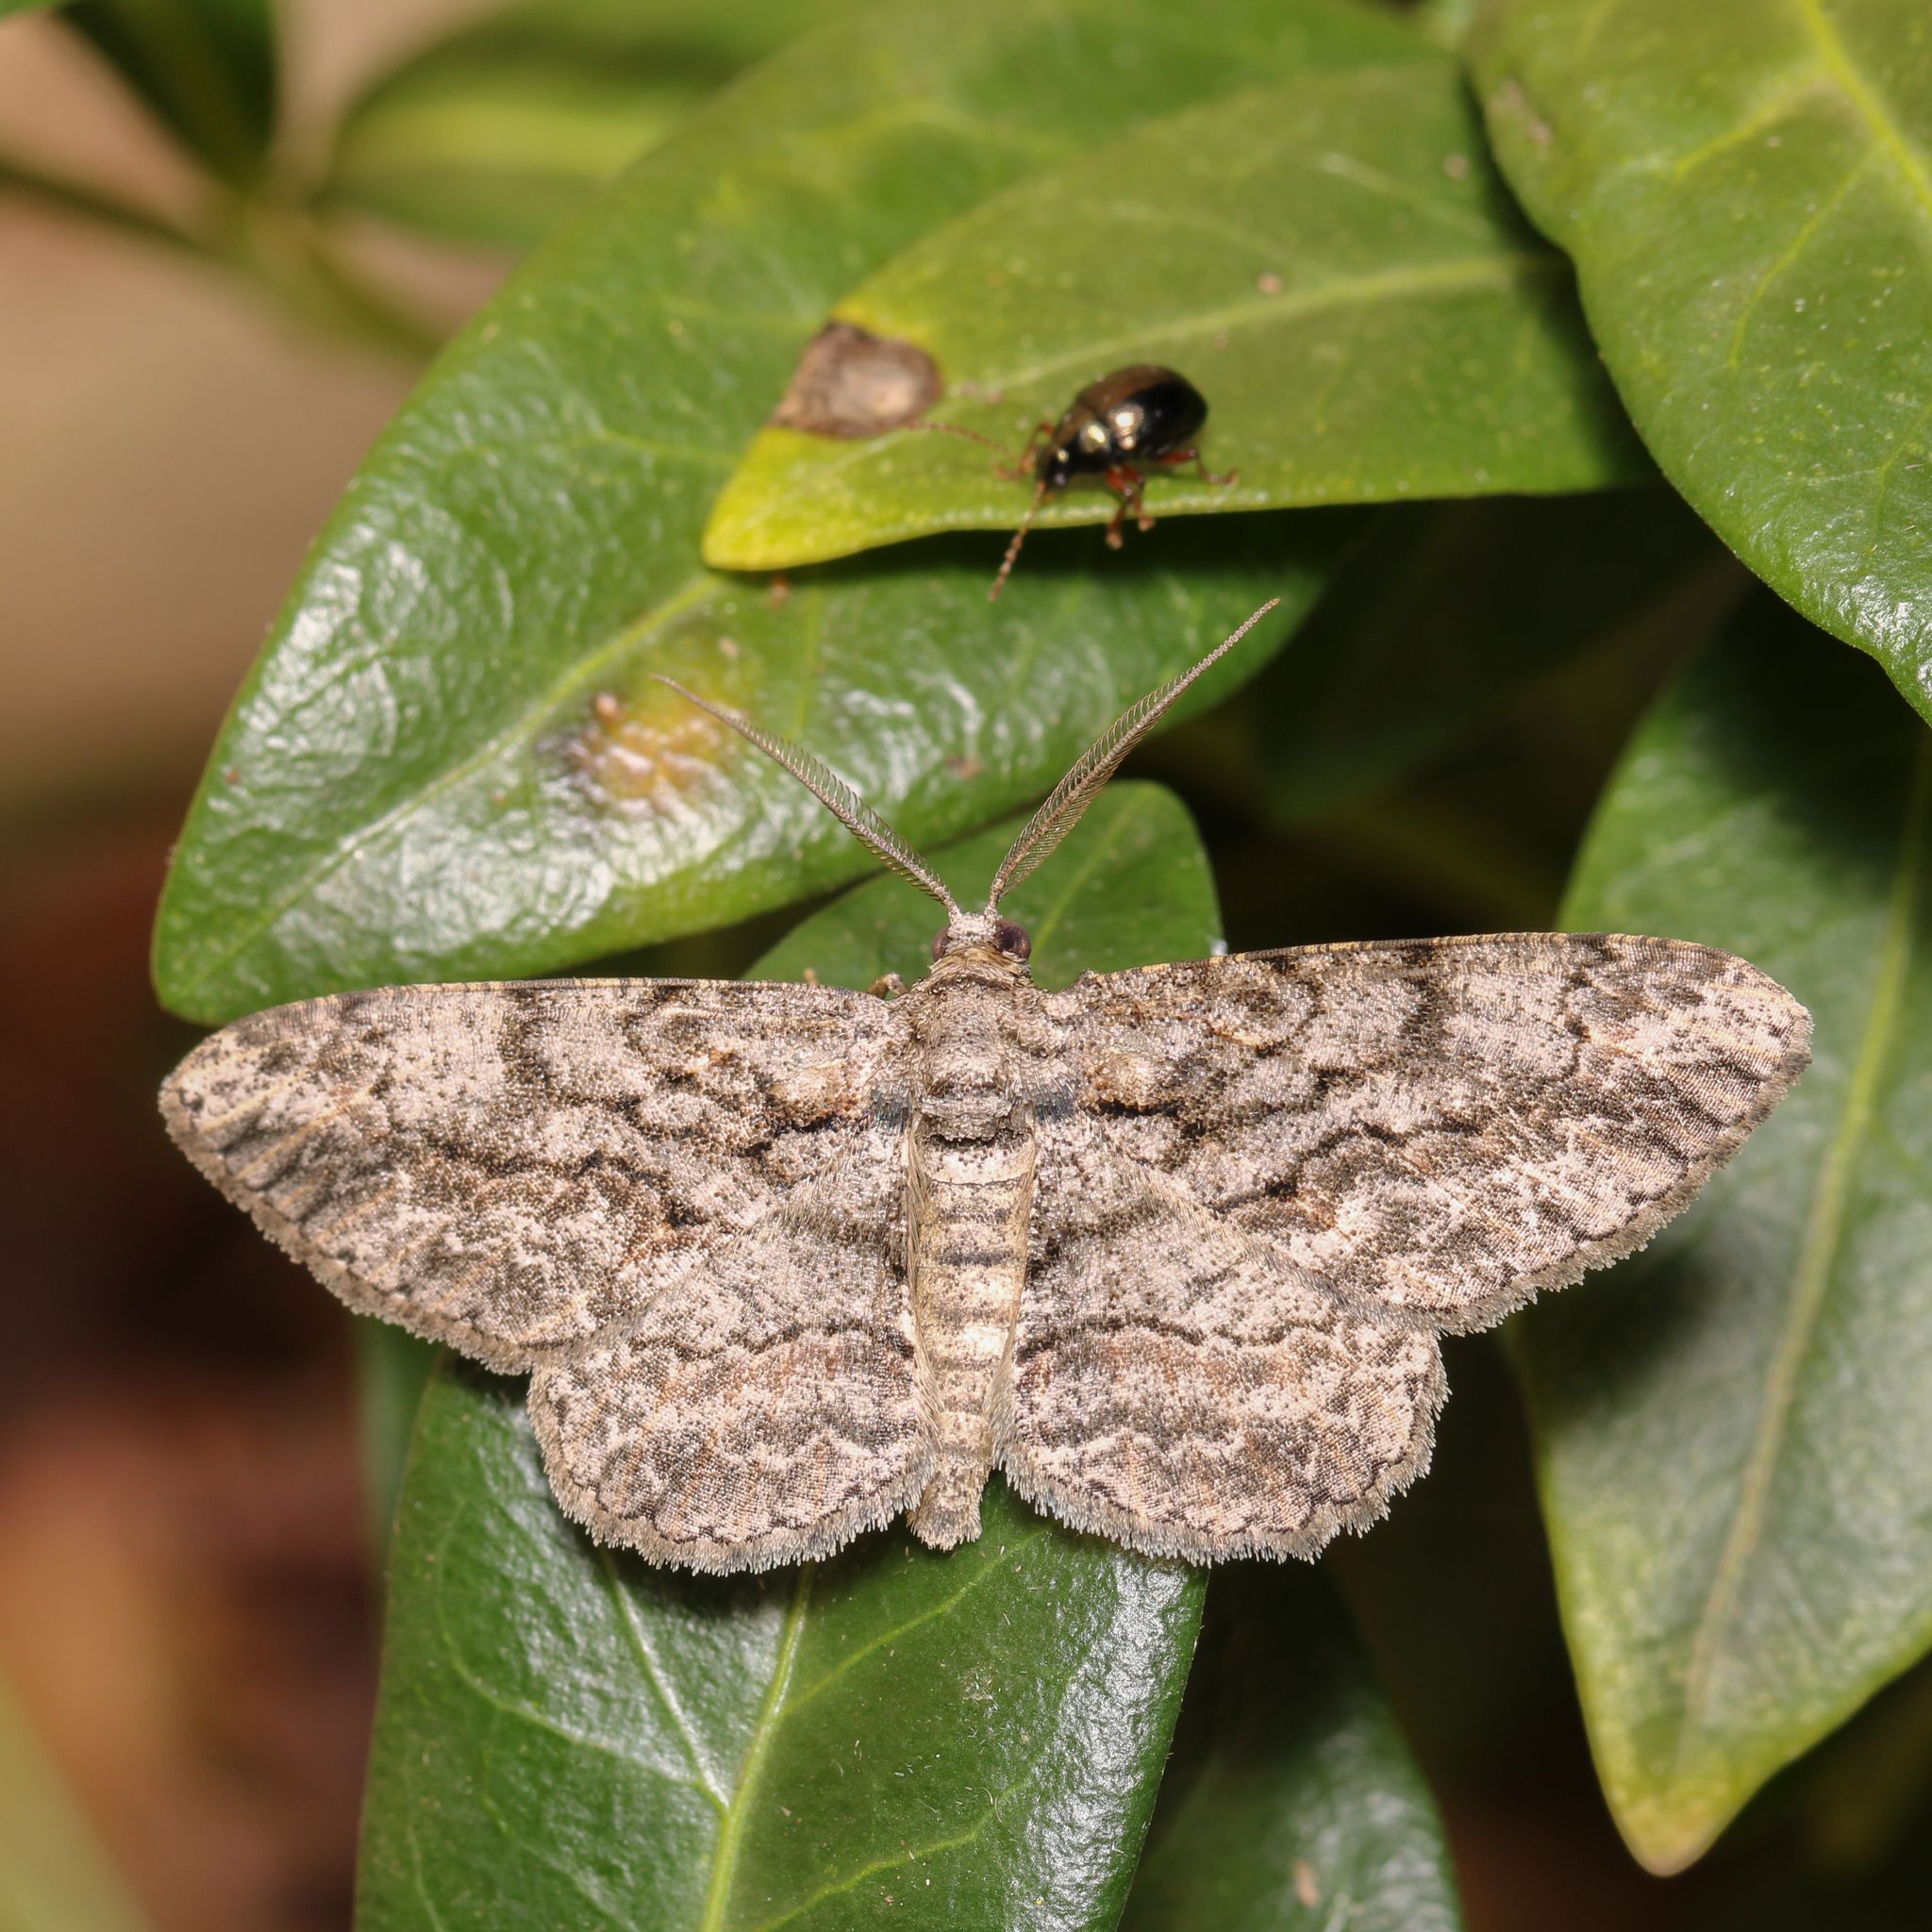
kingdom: Animalia
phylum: Arthropoda
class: Insecta
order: Lepidoptera
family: Geometridae
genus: Anavitrinella
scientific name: Anavitrinella pampinaria
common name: Common gray
